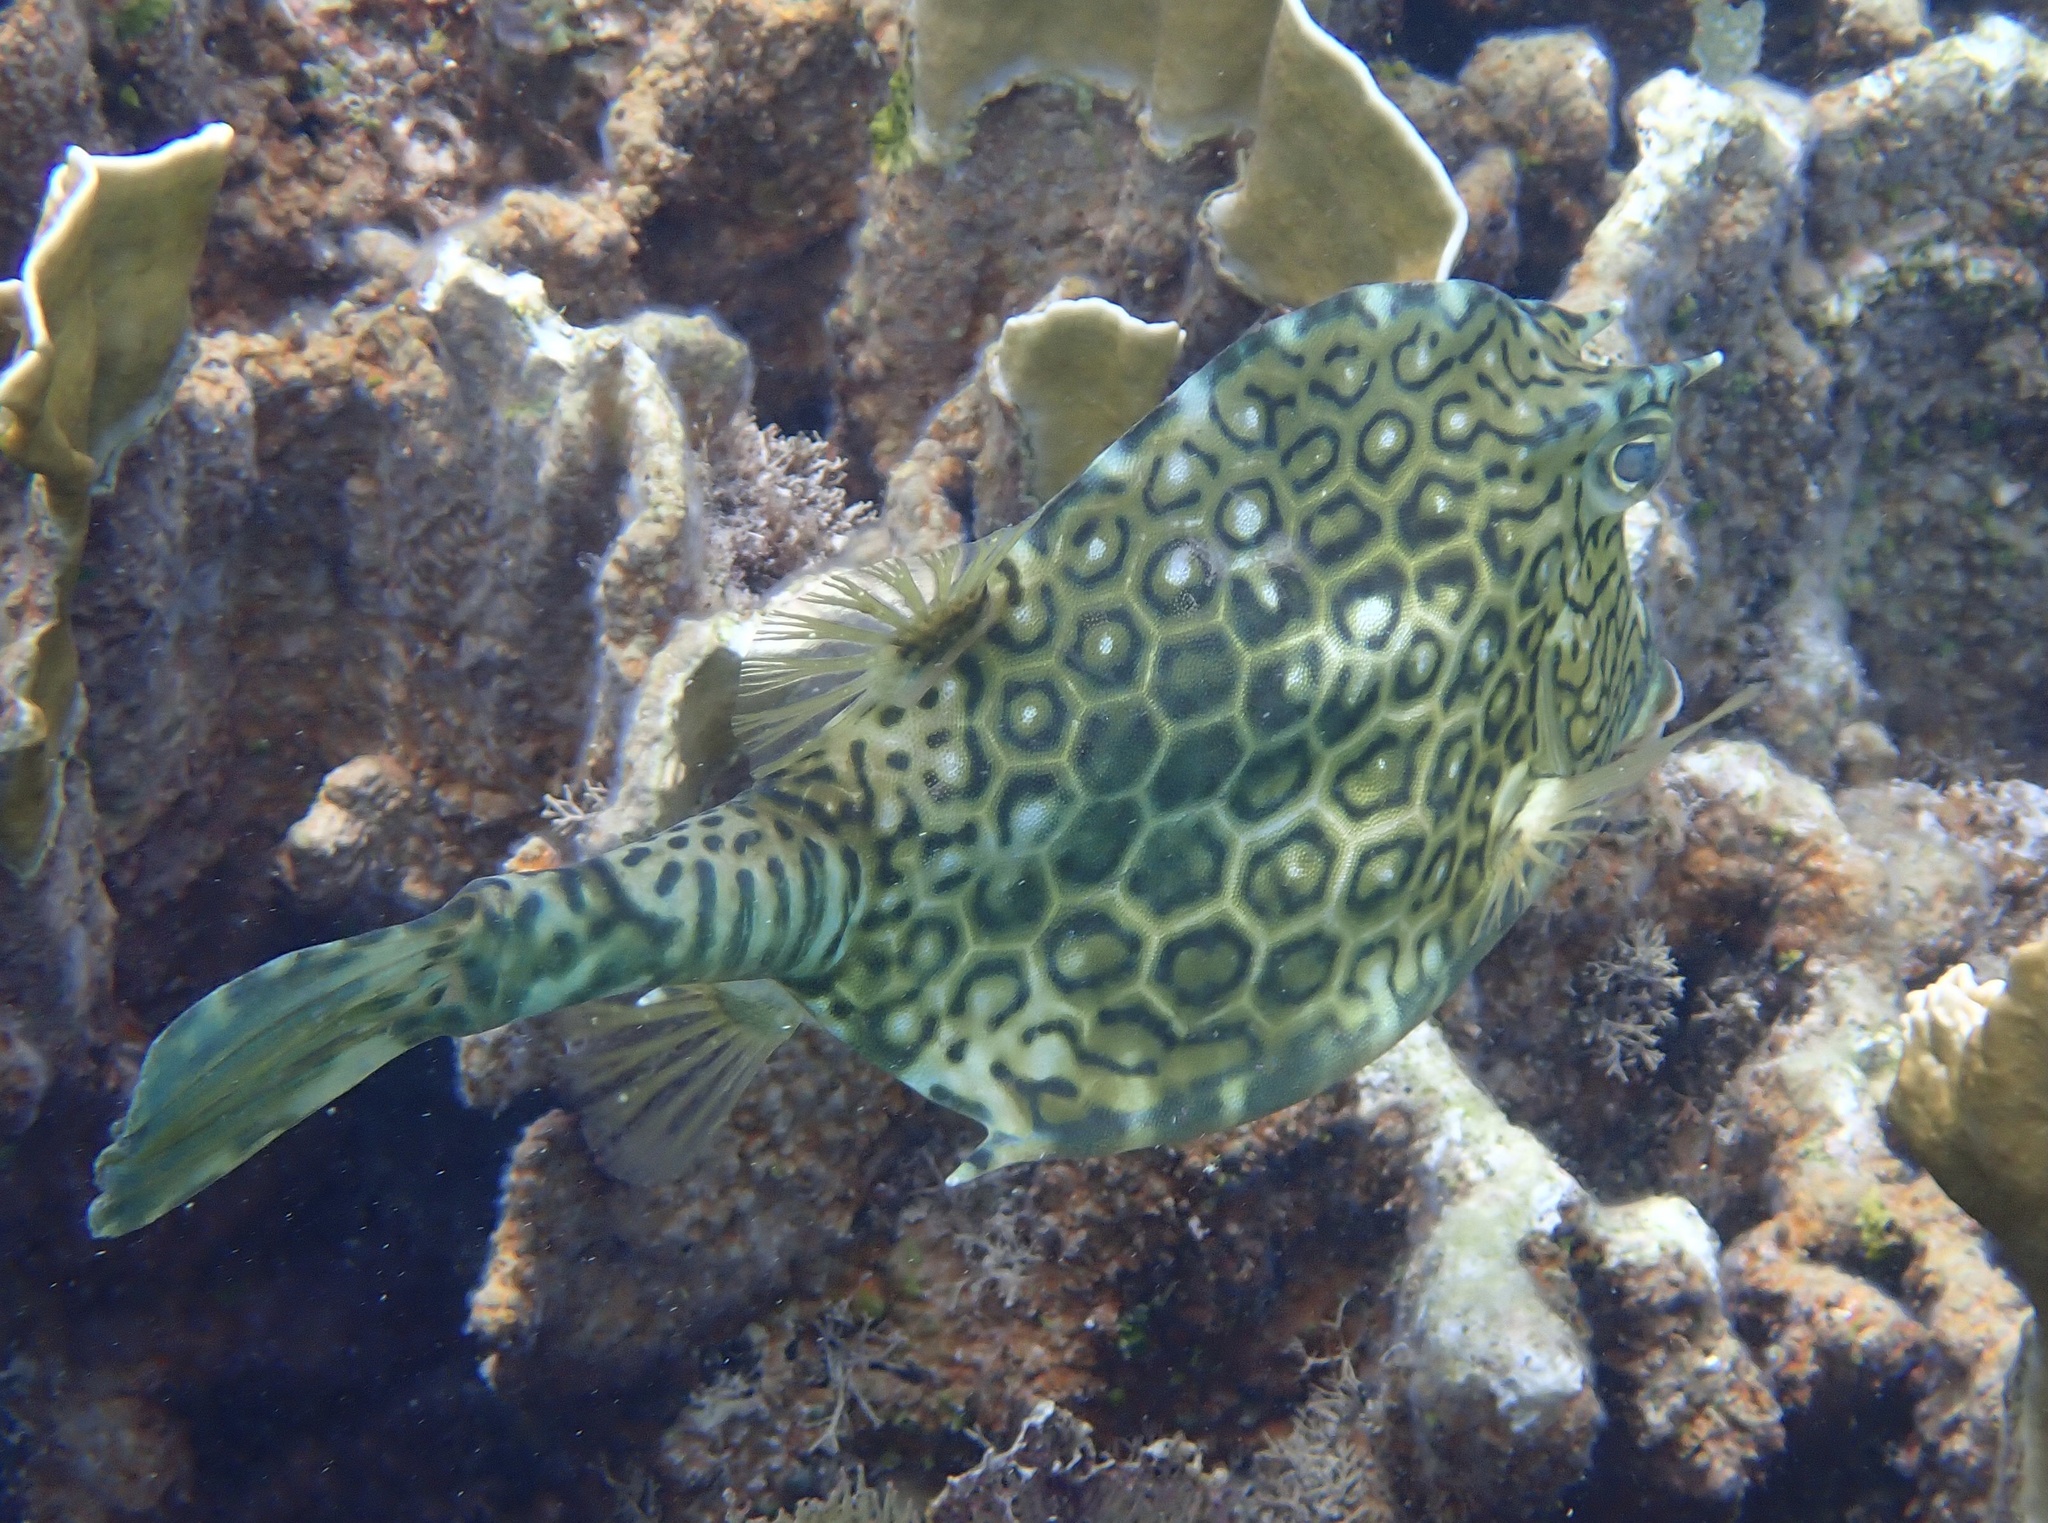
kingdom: Animalia
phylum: Chordata
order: Tetraodontiformes
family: Ostraciidae
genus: Acanthostracion
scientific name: Acanthostracion polygonius
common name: Honeycomb cowfish
